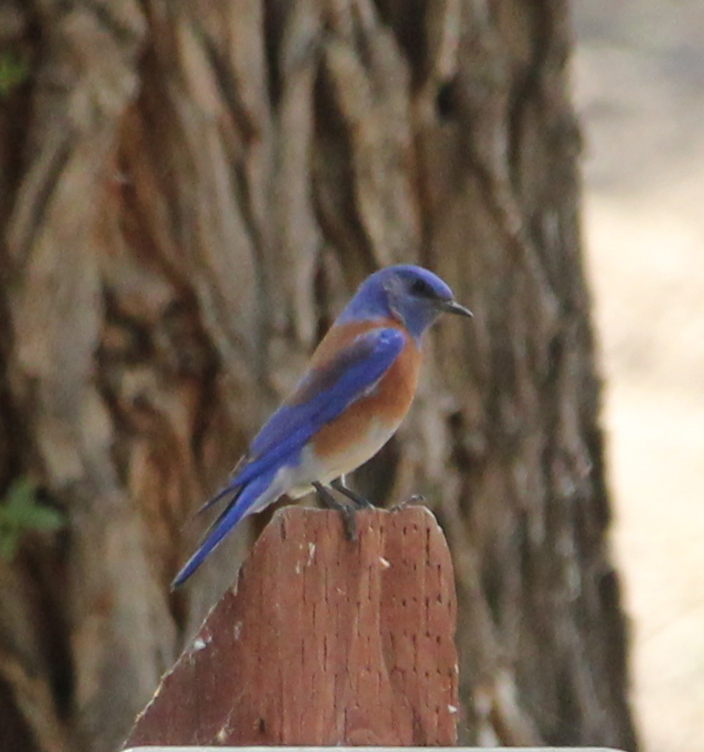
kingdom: Animalia
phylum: Chordata
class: Aves
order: Passeriformes
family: Turdidae
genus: Sialia
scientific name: Sialia mexicana
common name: Western bluebird
